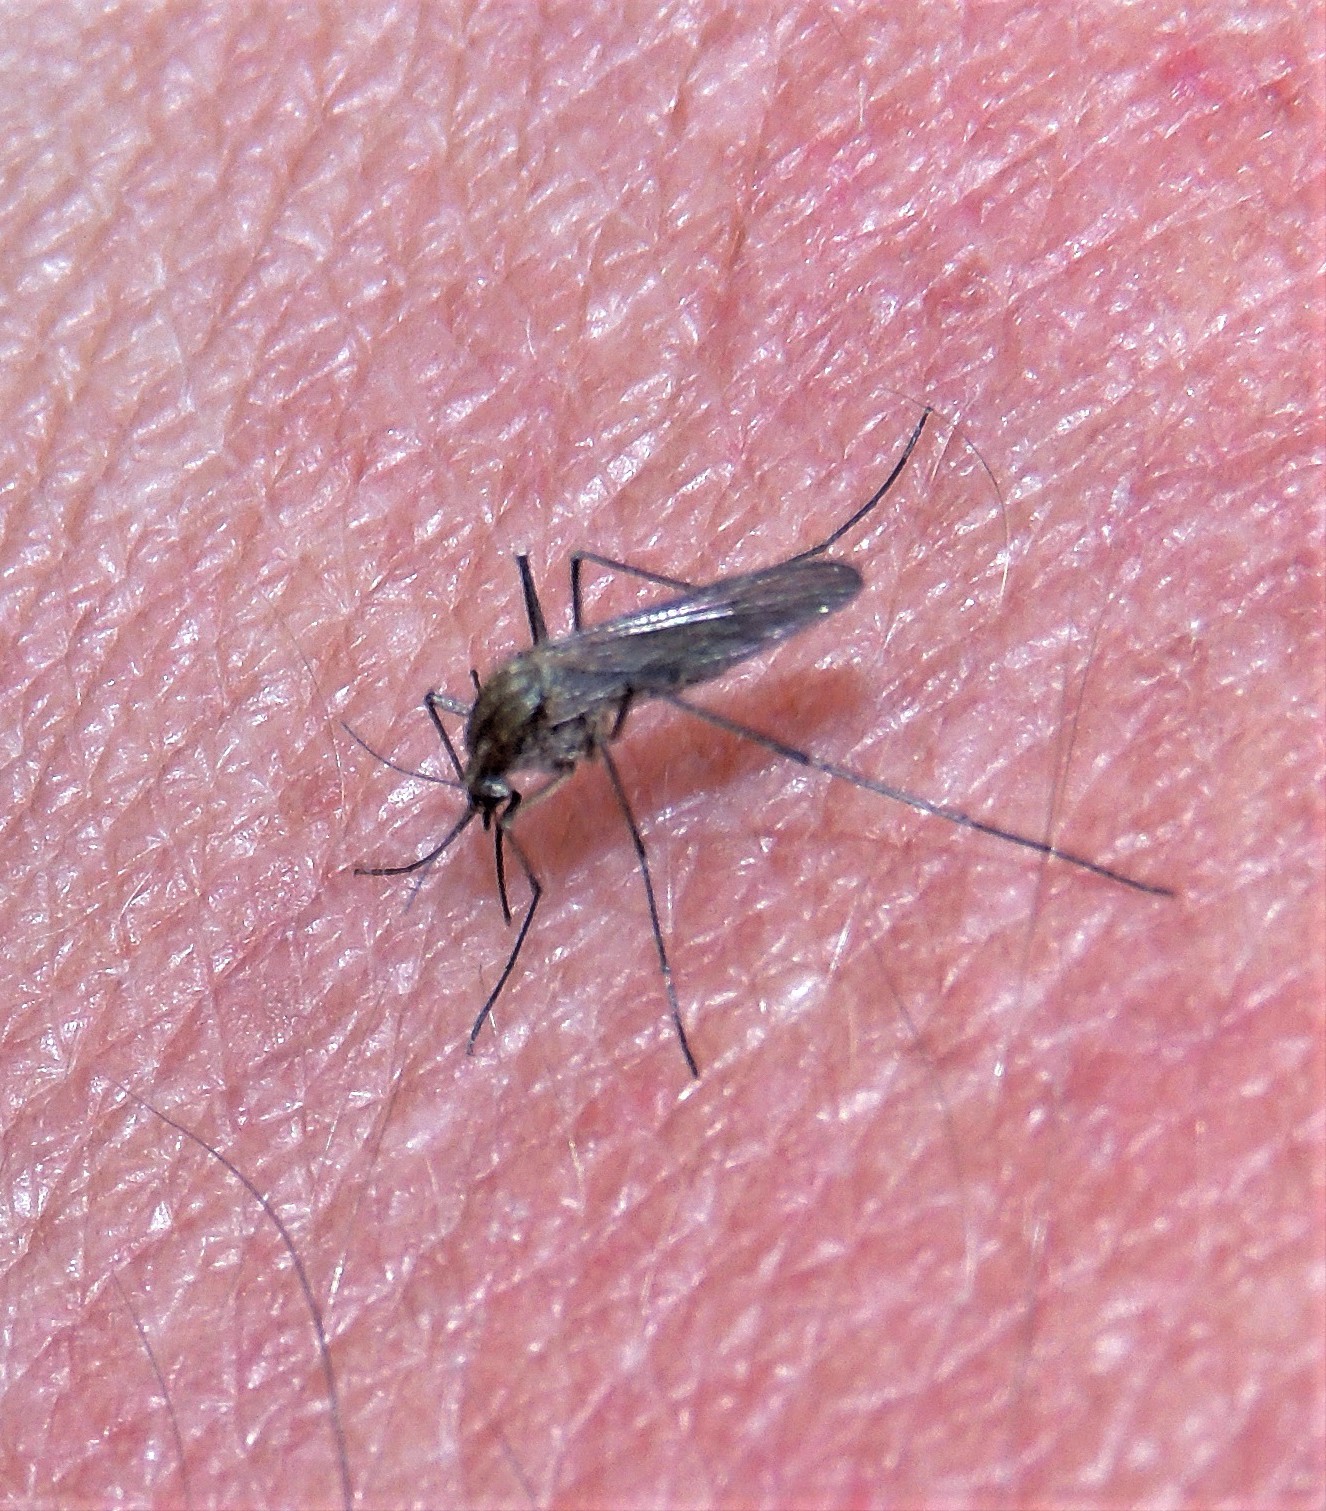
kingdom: Animalia
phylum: Arthropoda
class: Insecta
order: Diptera
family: Culicidae
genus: Aedes
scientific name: Aedes albifasciatus
